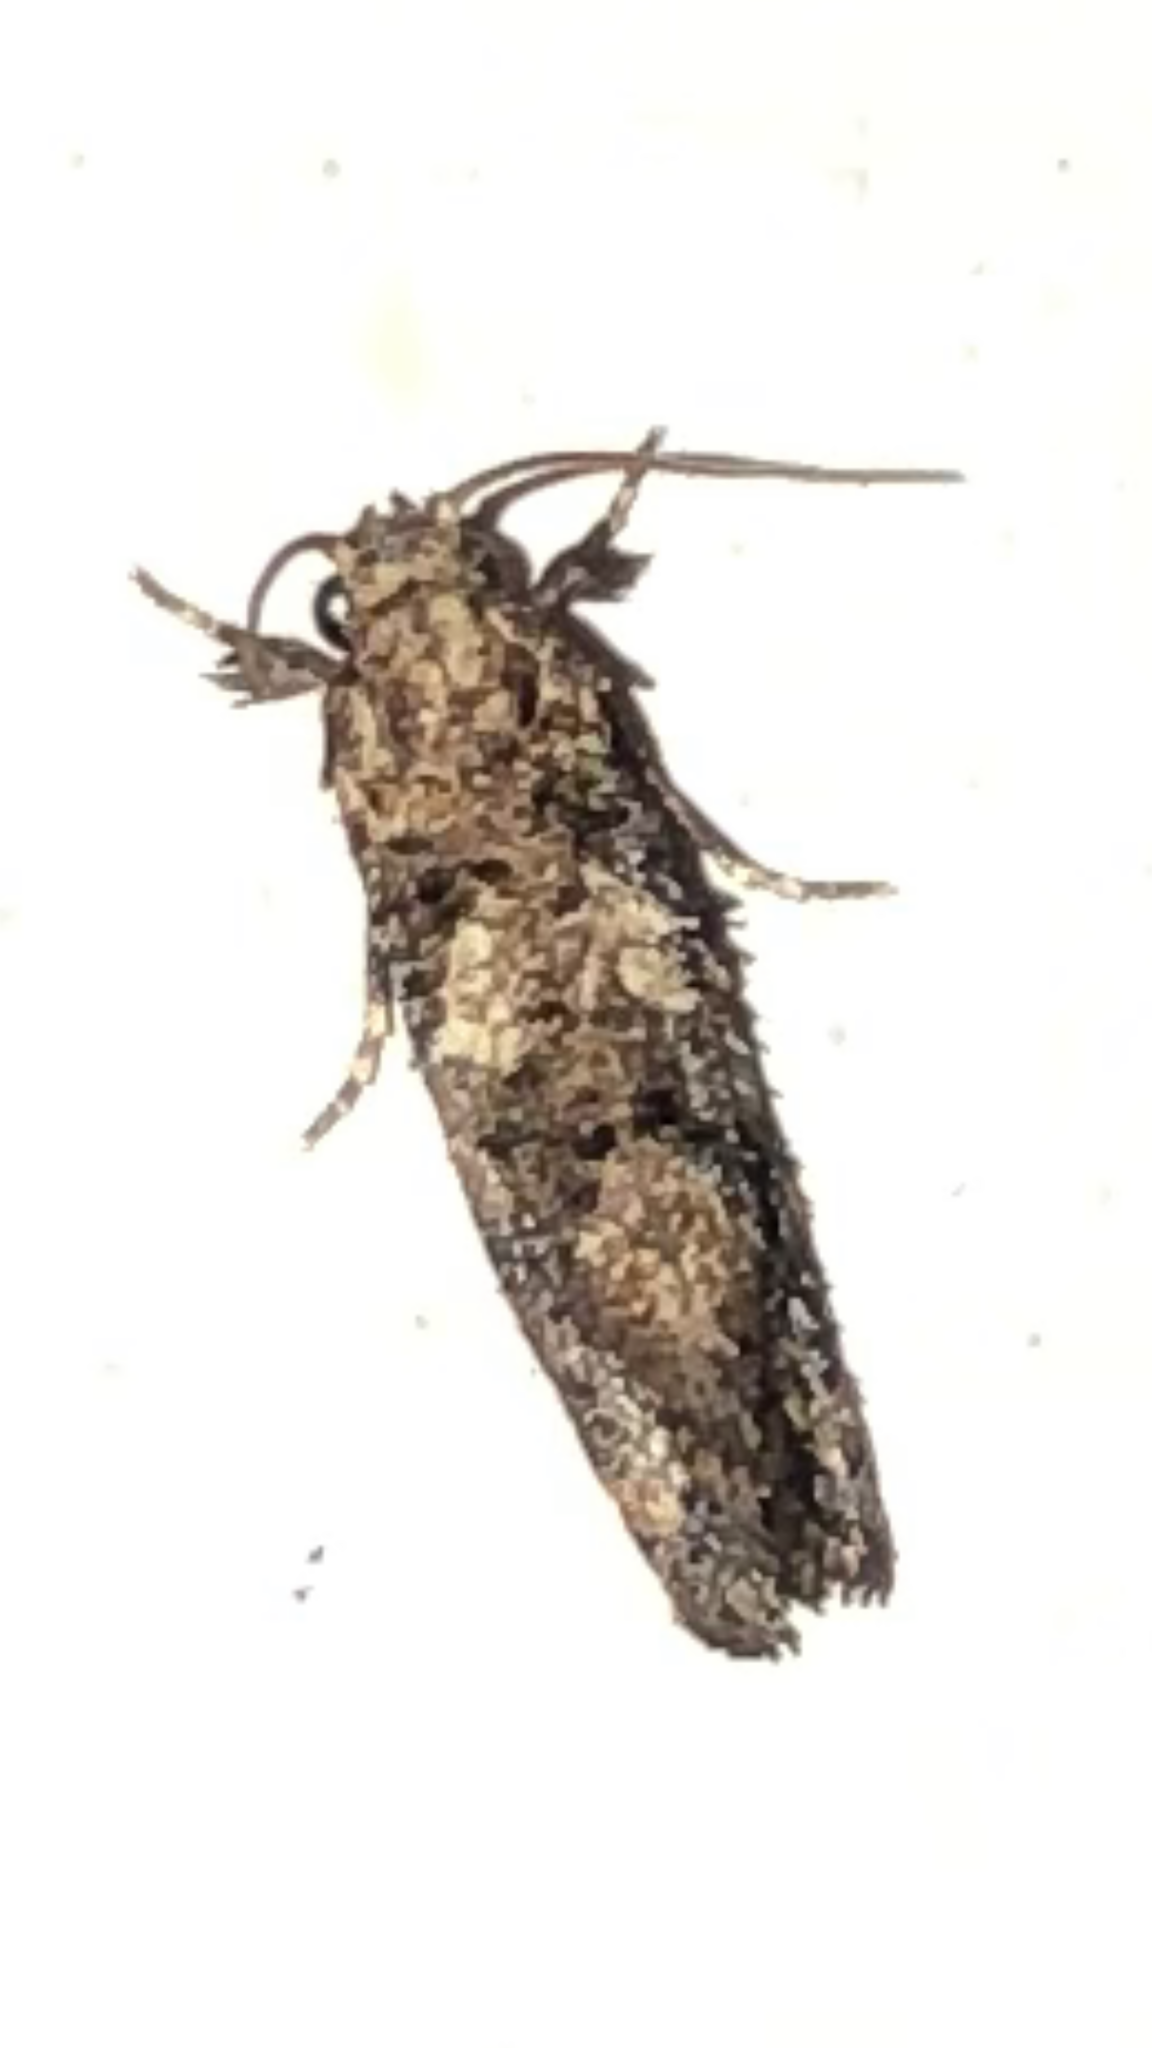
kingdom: Animalia
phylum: Arthropoda
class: Insecta
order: Lepidoptera
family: Tineidae
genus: Acrolophus
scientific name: Acrolophus cressoni
